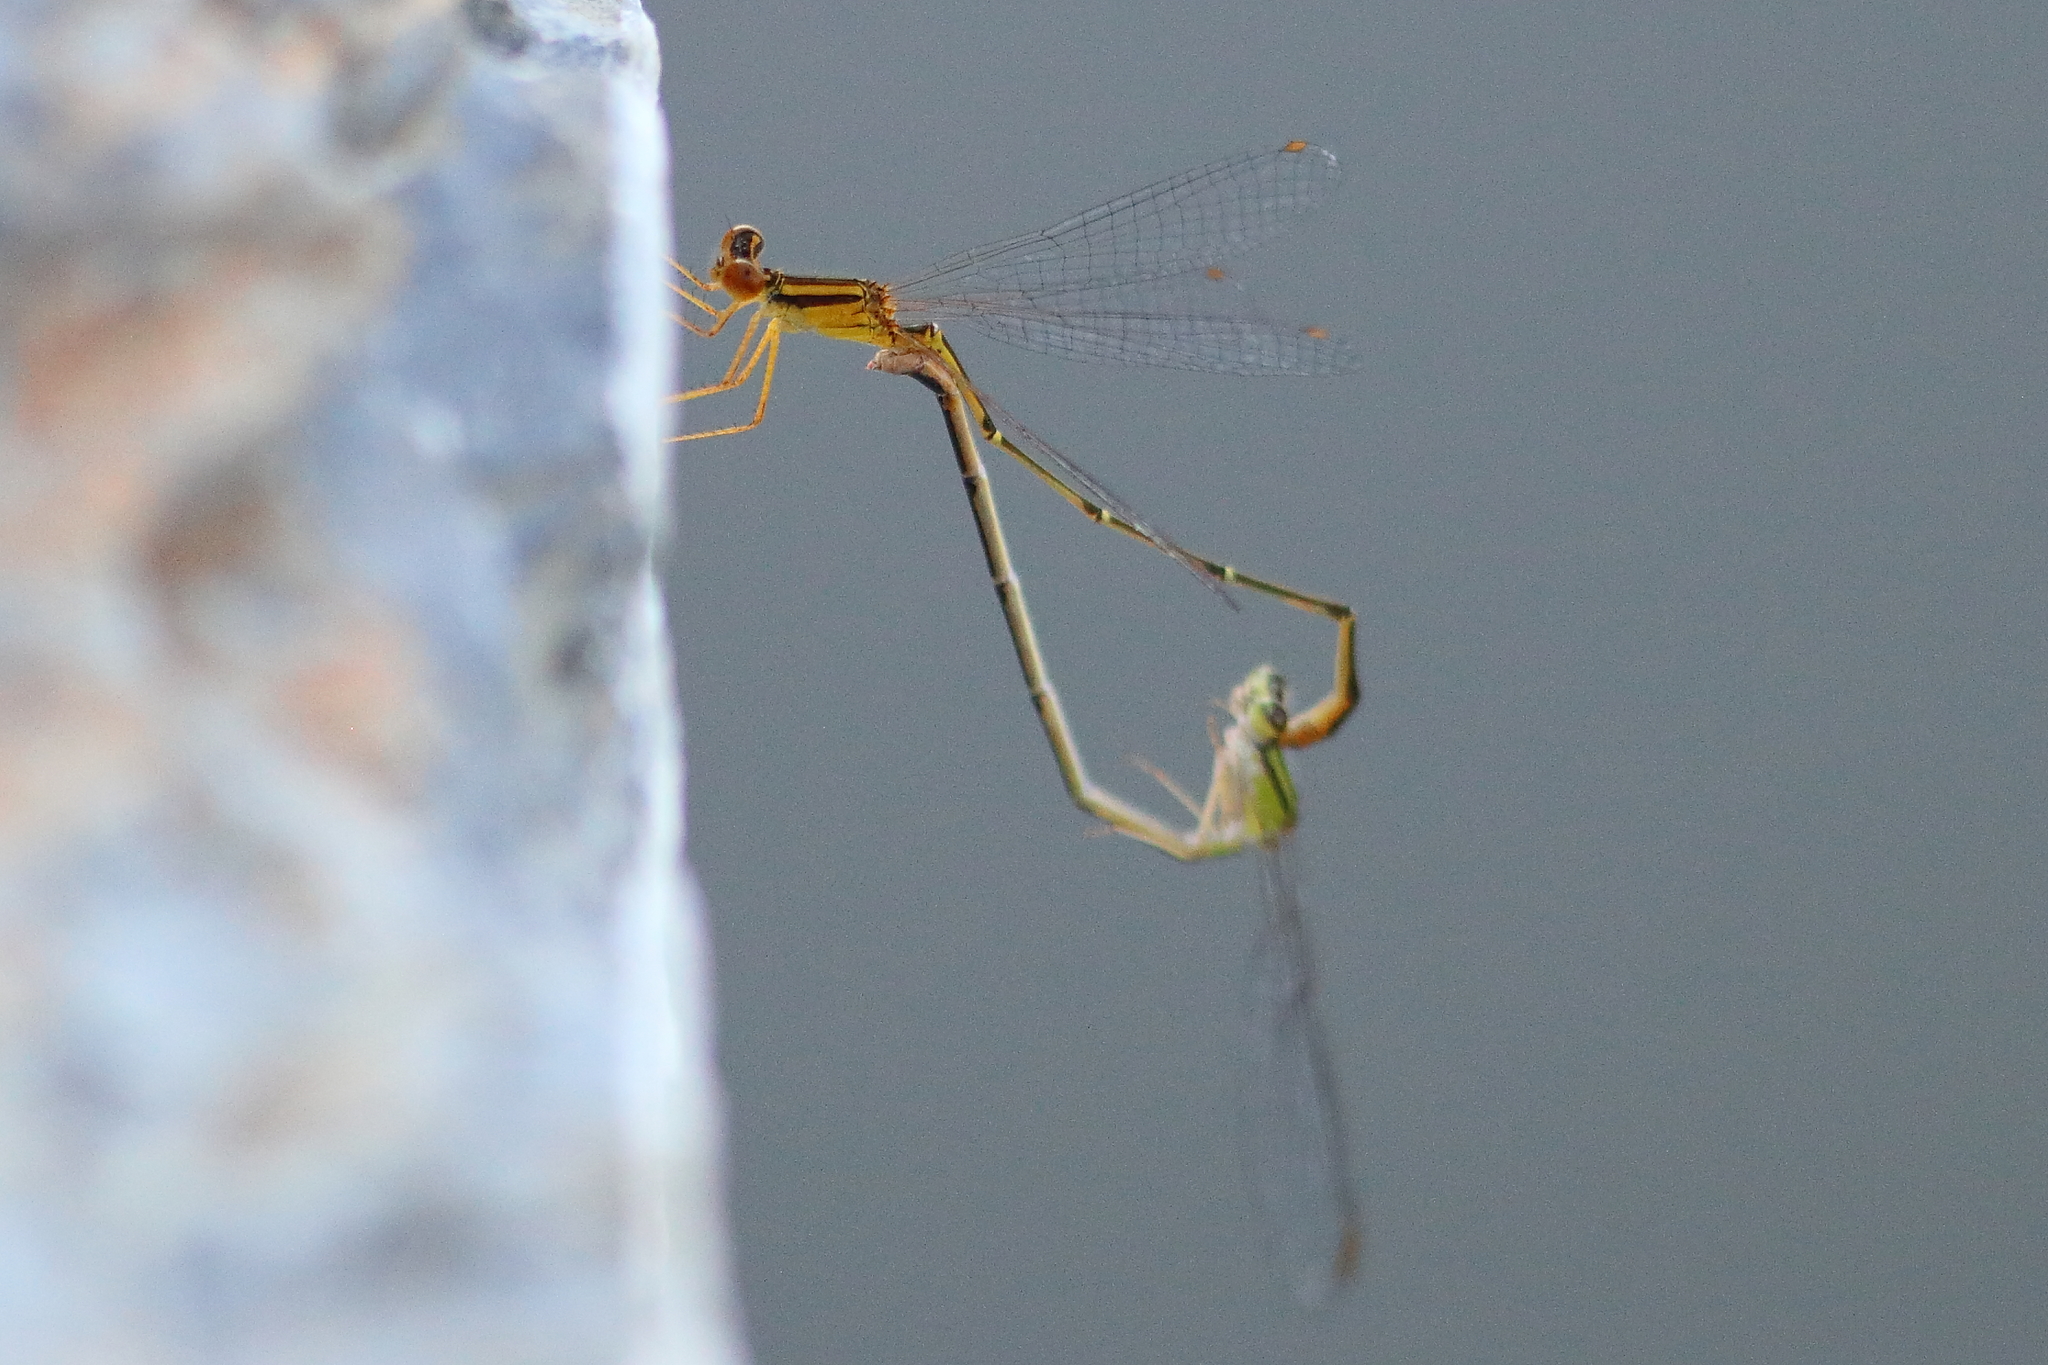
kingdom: Animalia
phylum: Arthropoda
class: Insecta
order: Odonata
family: Coenagrionidae
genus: Enallagma
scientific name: Enallagma signatum
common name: Orange bluet
